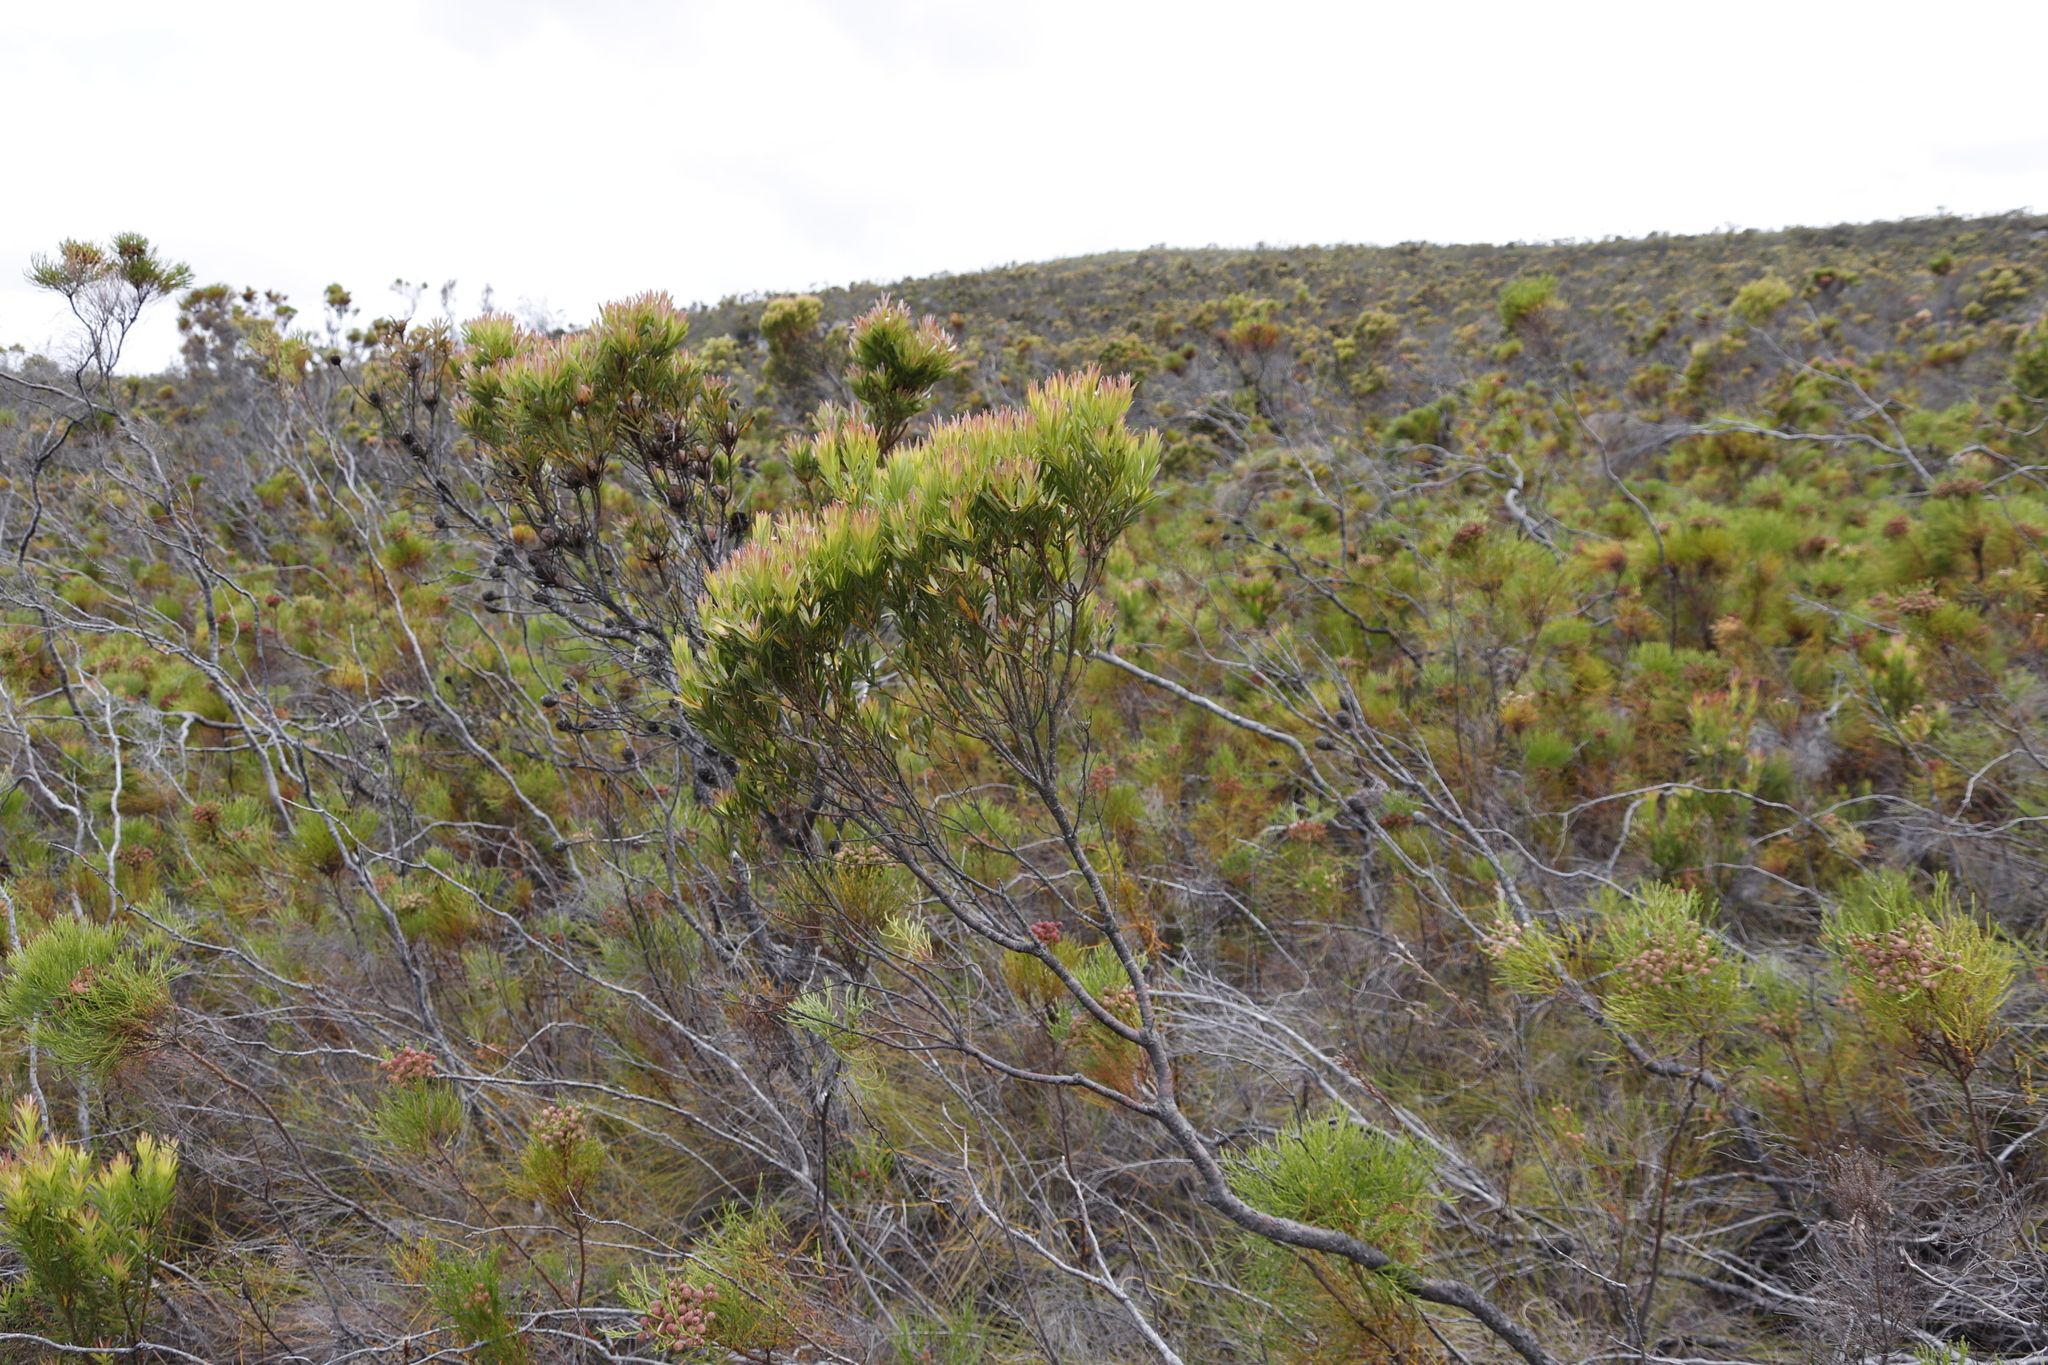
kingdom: Plantae
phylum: Tracheophyta
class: Magnoliopsida
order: Proteales
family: Proteaceae
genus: Leucadendron
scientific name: Leucadendron xanthoconus
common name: Sickle-leaf conebush
